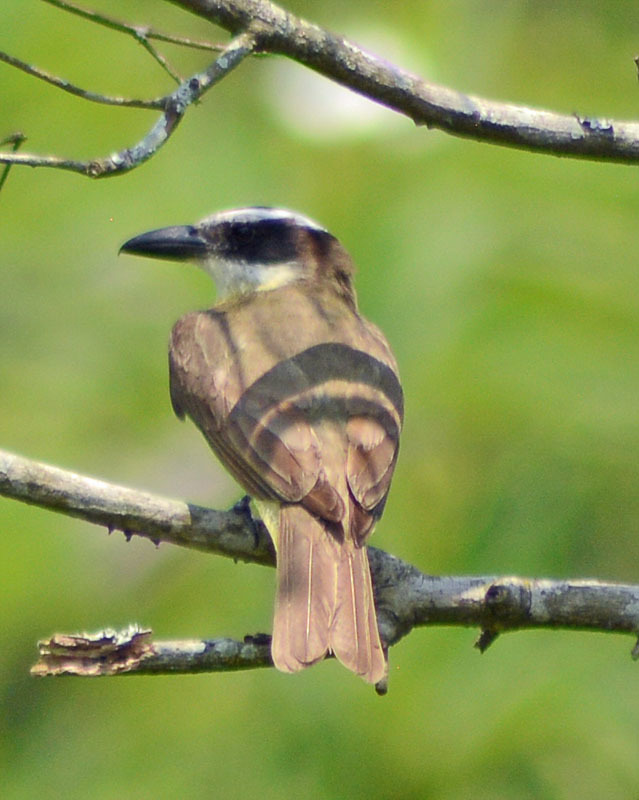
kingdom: Animalia
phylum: Chordata
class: Aves
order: Passeriformes
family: Tyrannidae
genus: Megarynchus
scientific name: Megarynchus pitangua
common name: Boat-billed flycatcher
